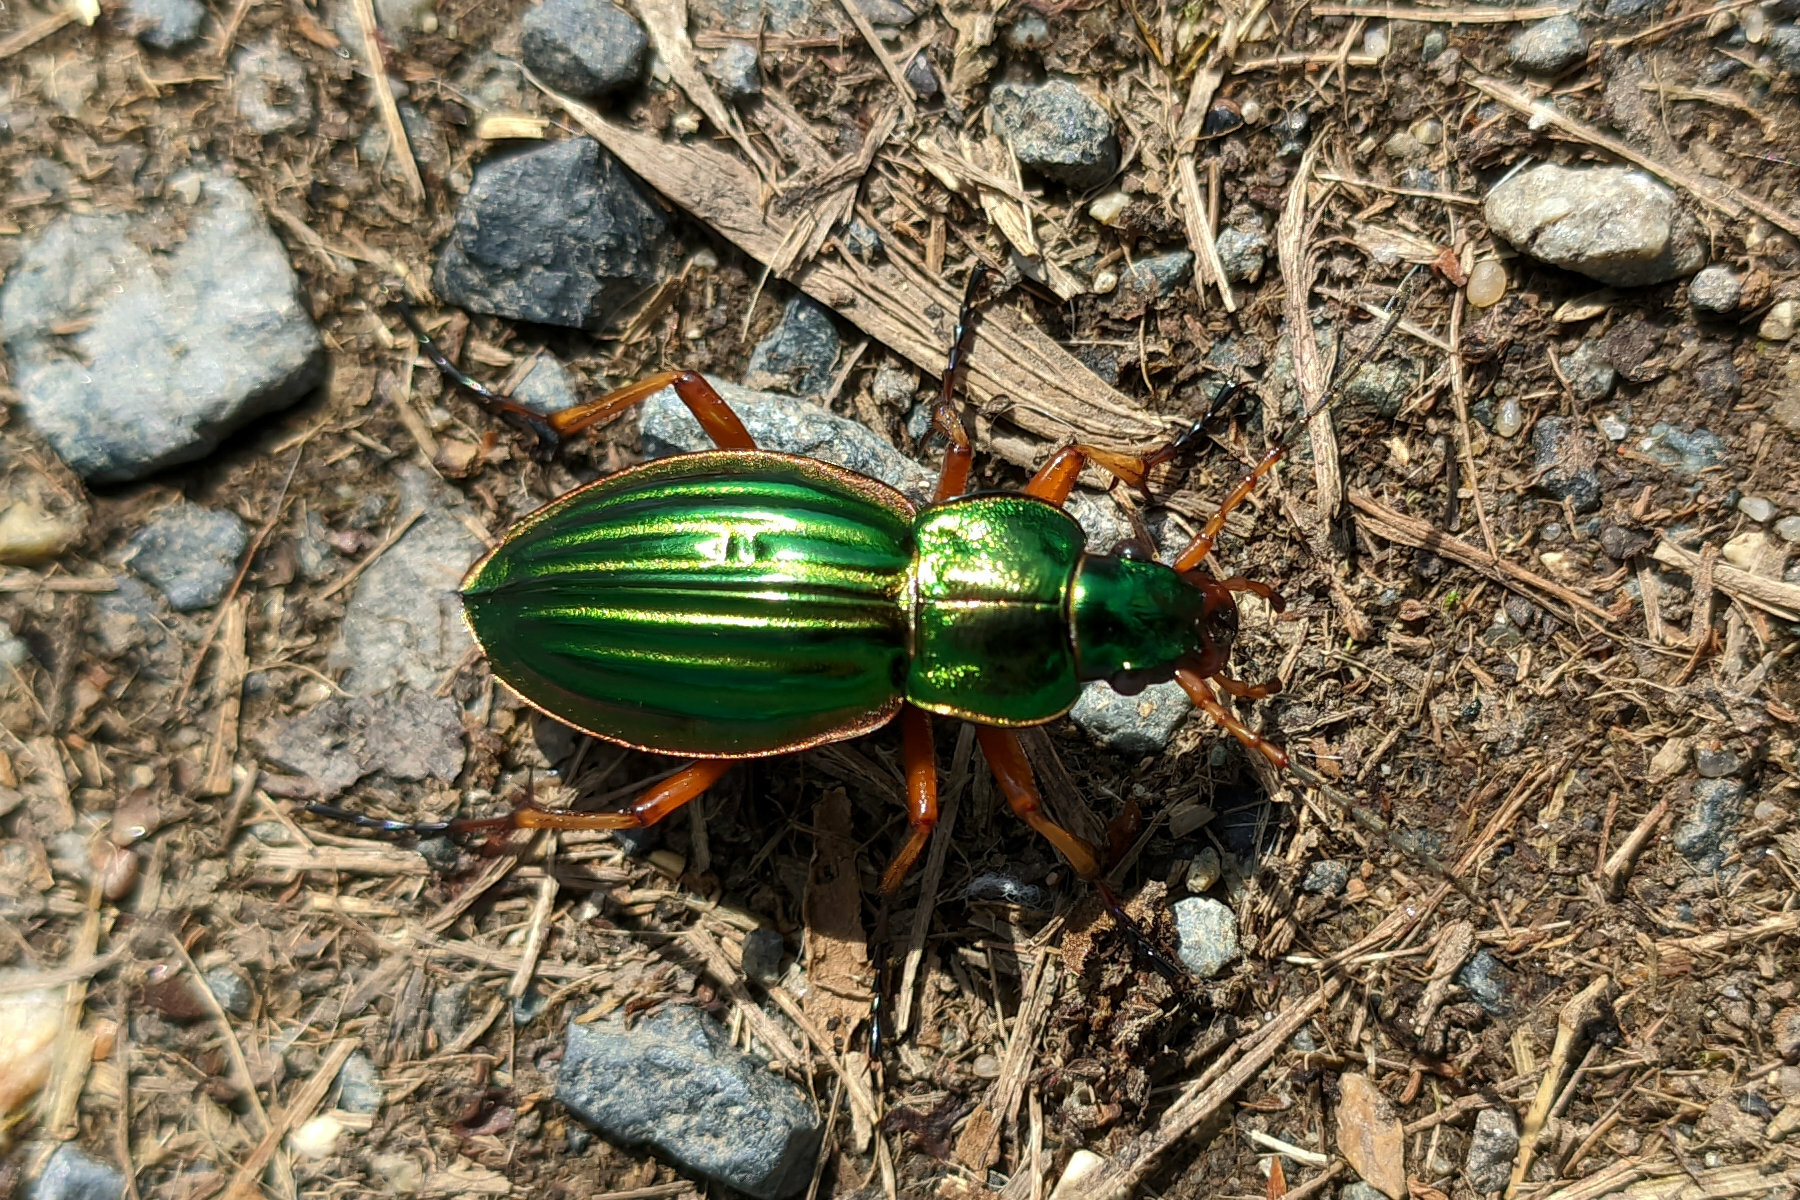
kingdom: Animalia
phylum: Arthropoda
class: Insecta
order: Coleoptera
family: Carabidae
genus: Carabus
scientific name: Carabus auratus
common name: Golden ground beetle
